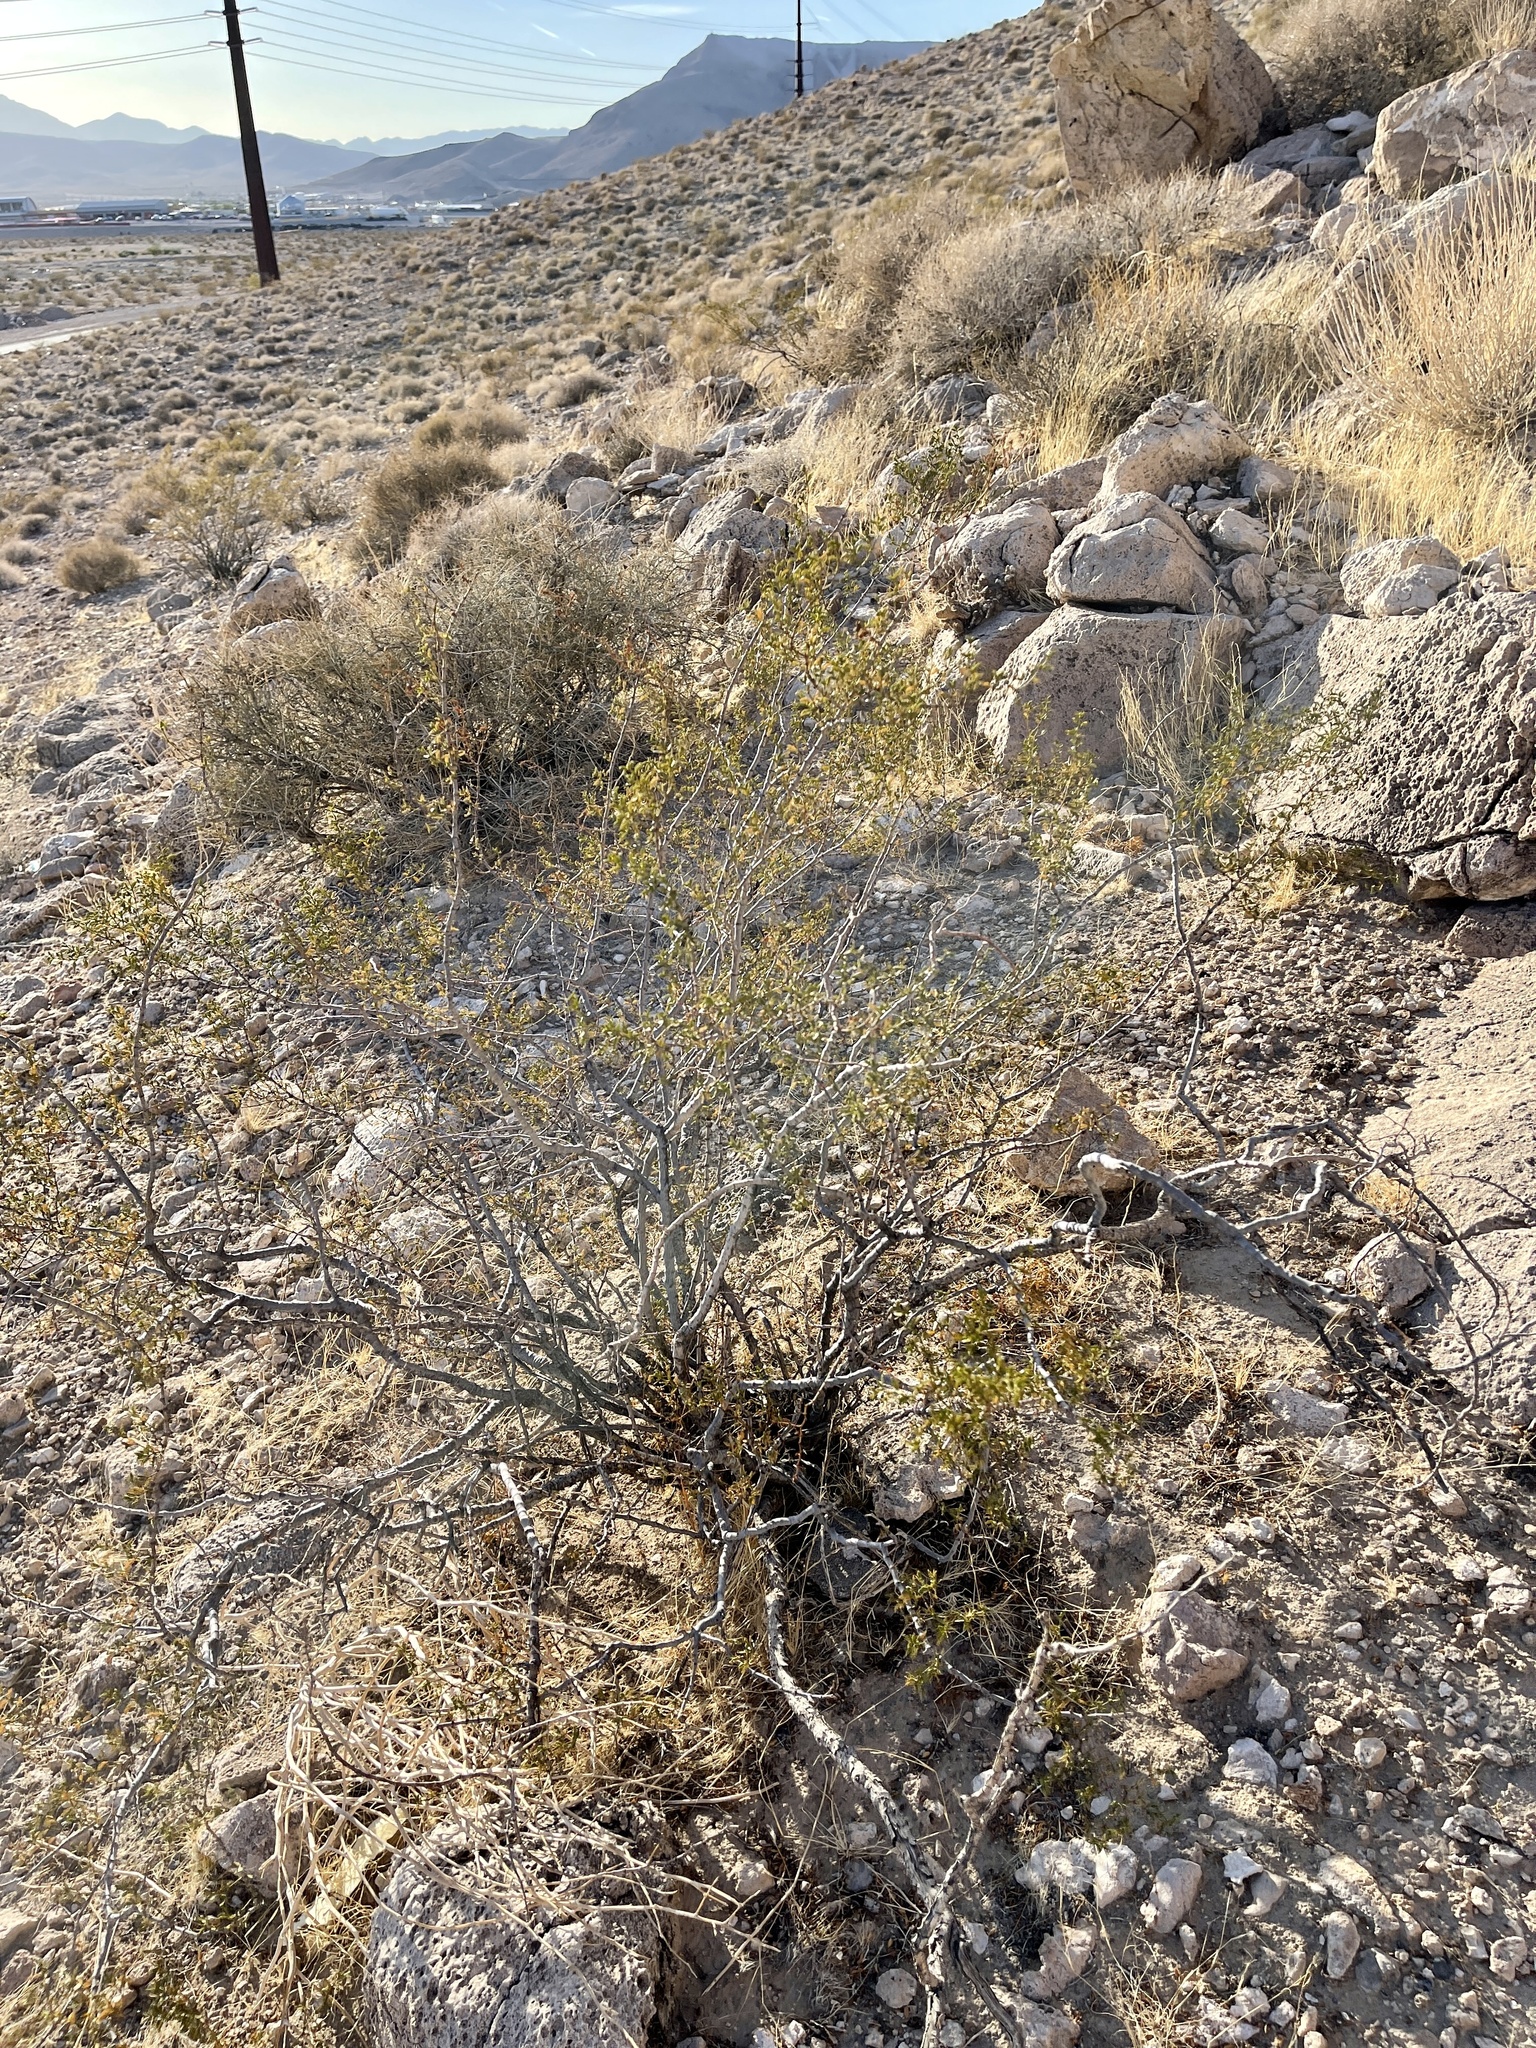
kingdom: Plantae
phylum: Tracheophyta
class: Magnoliopsida
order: Zygophyllales
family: Zygophyllaceae
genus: Larrea
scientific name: Larrea tridentata
